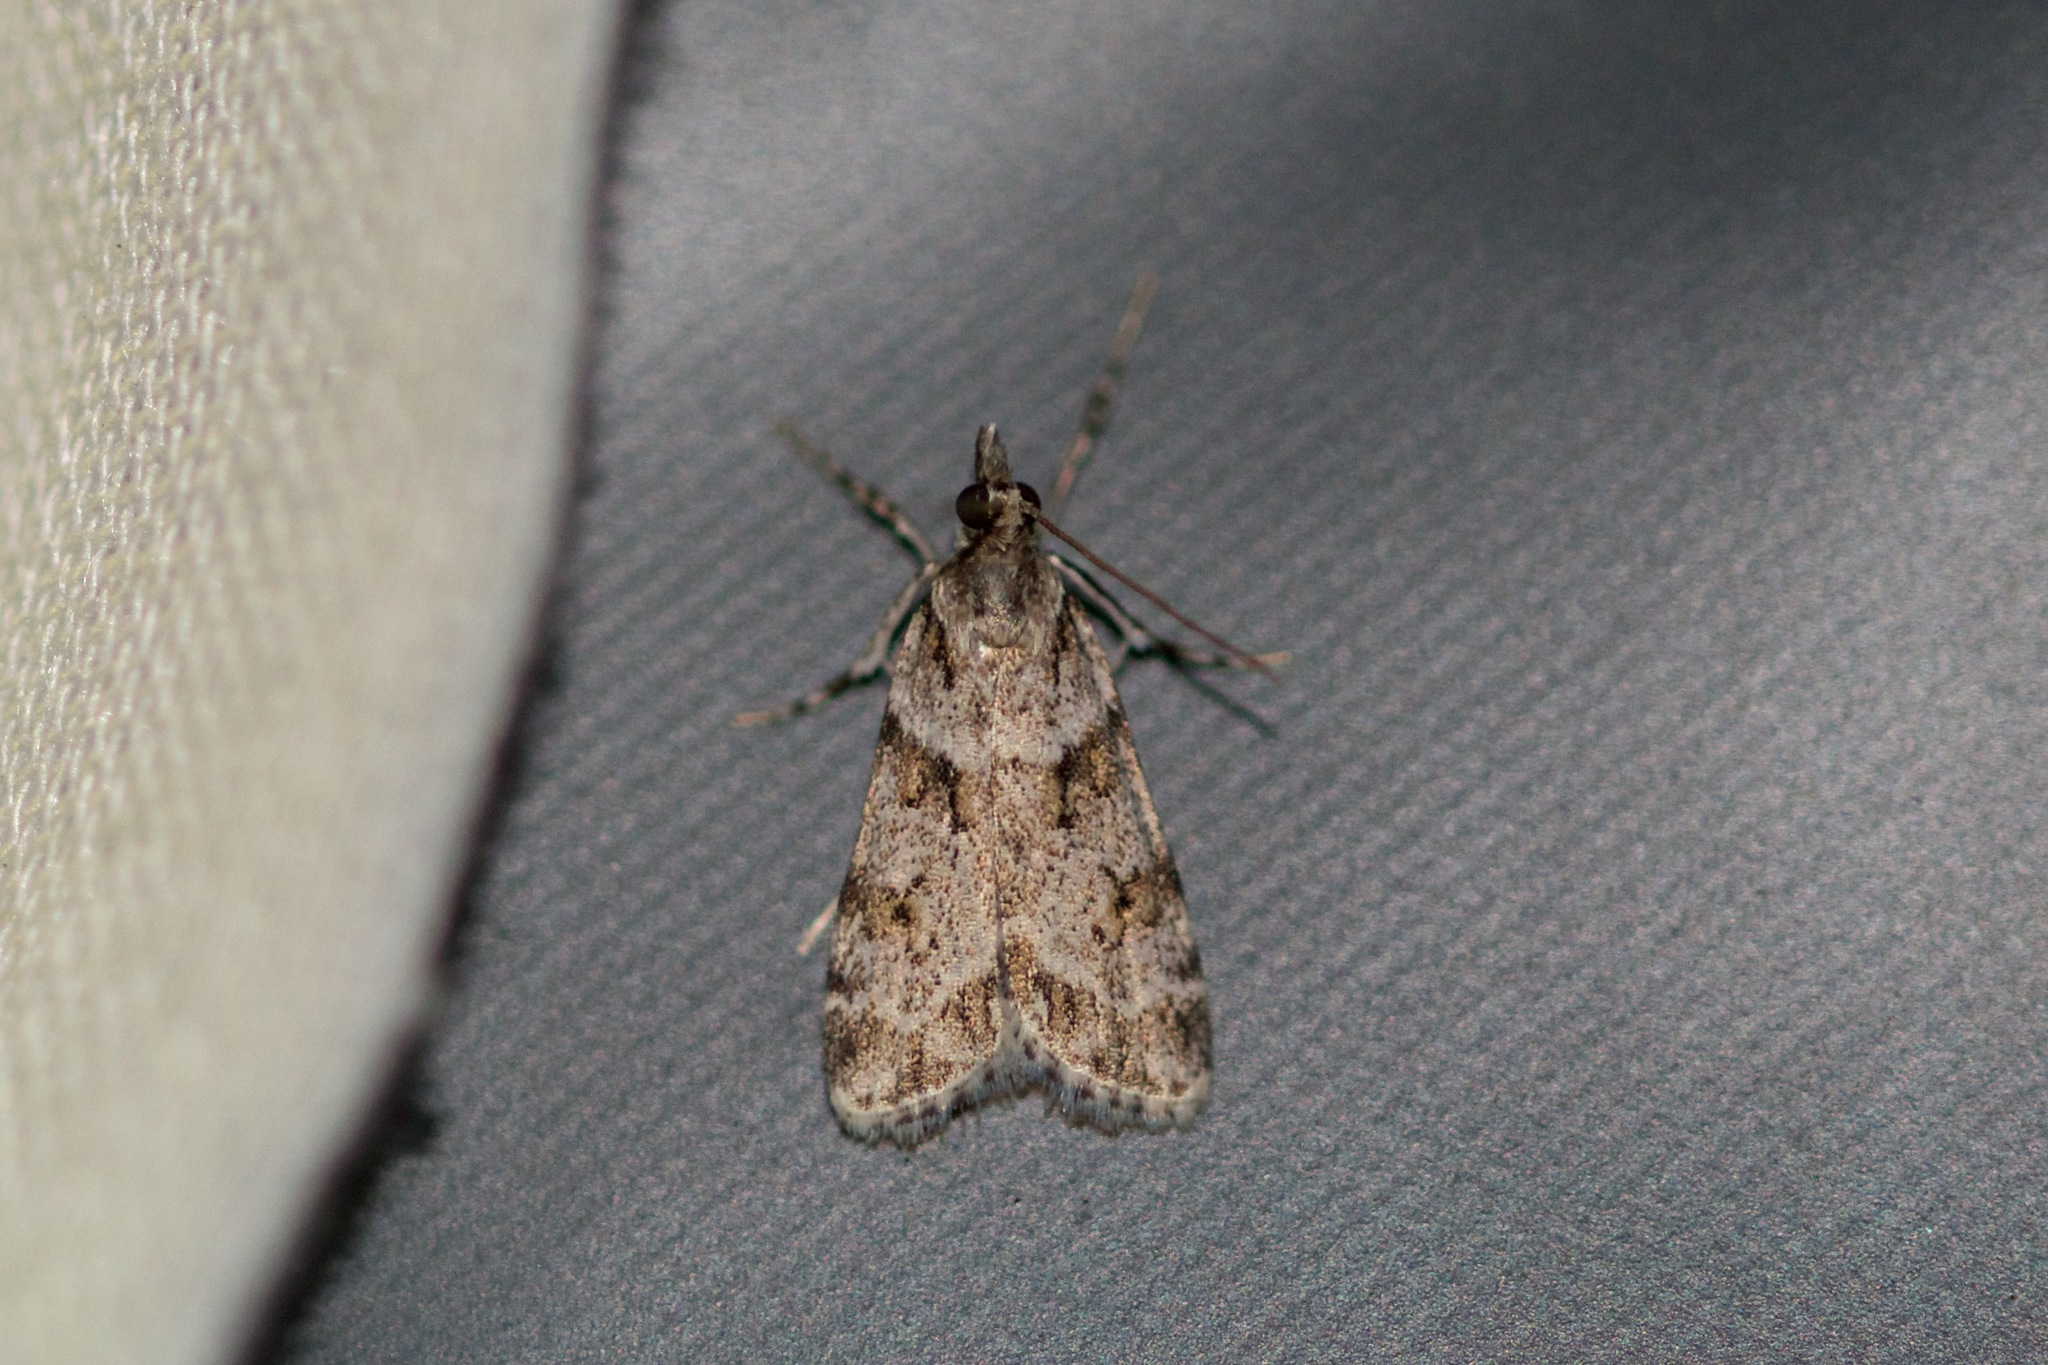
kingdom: Animalia
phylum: Arthropoda
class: Insecta
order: Lepidoptera
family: Crambidae
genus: Scoparia
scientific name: Scoparia biplagialis
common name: Double-striped scoparia moth
